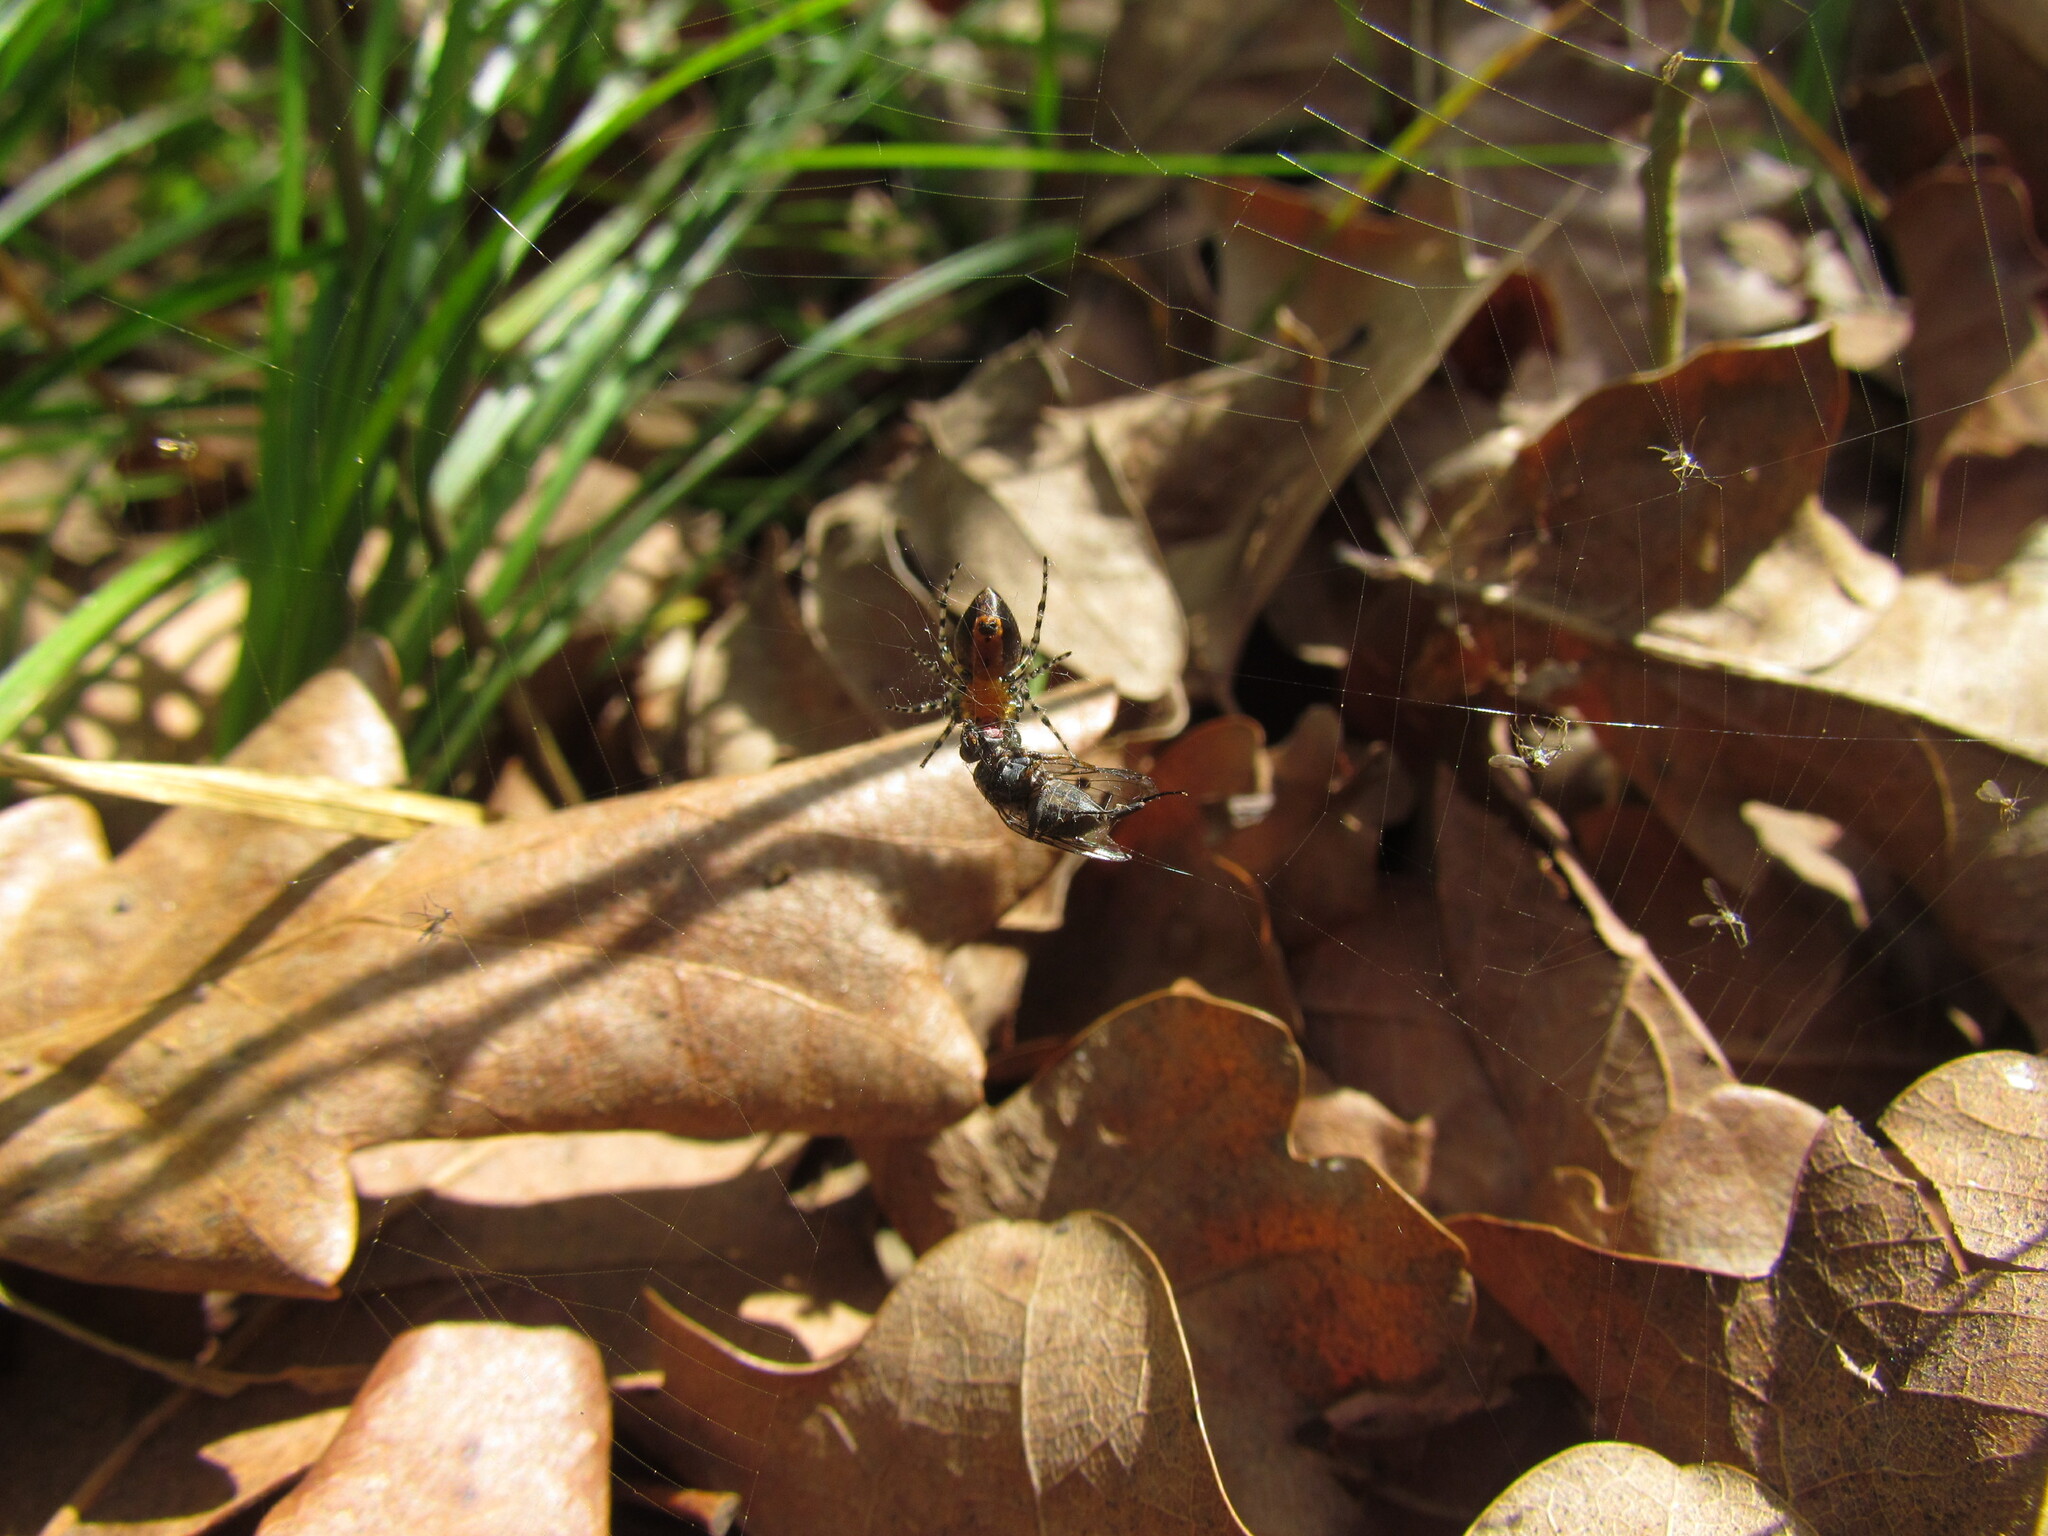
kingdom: Animalia
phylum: Arthropoda
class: Arachnida
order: Araneae
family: Araneidae
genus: Alpaida
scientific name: Alpaida gallardoi
